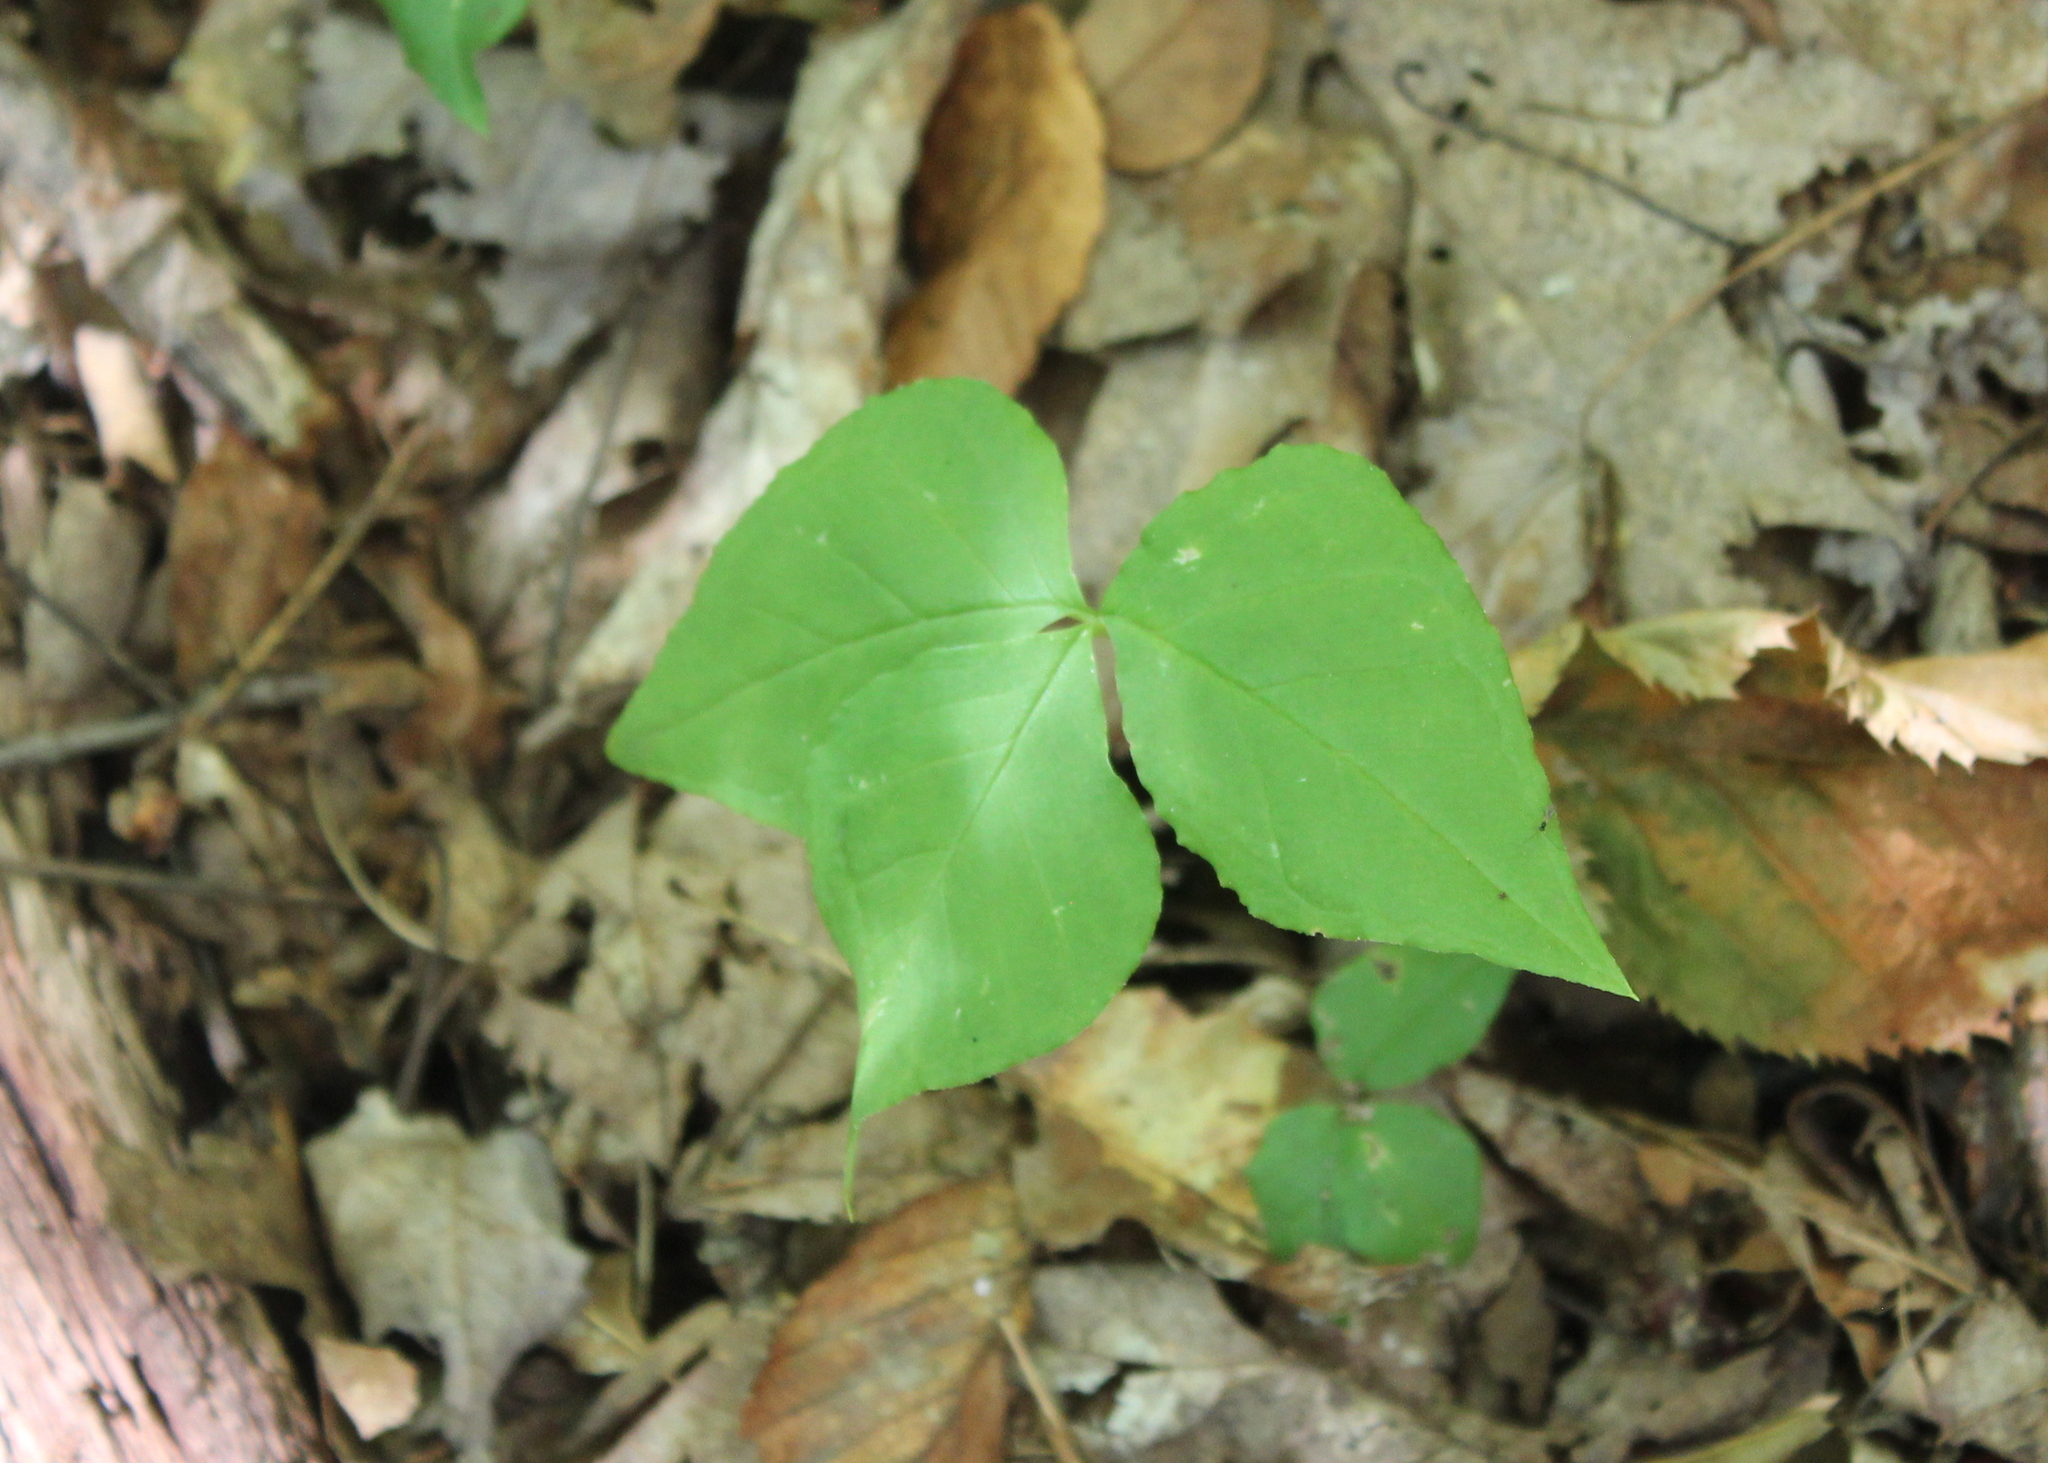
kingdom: Plantae
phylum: Tracheophyta
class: Liliopsida
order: Alismatales
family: Araceae
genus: Arisaema
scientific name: Arisaema triphyllum
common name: Jack-in-the-pulpit
